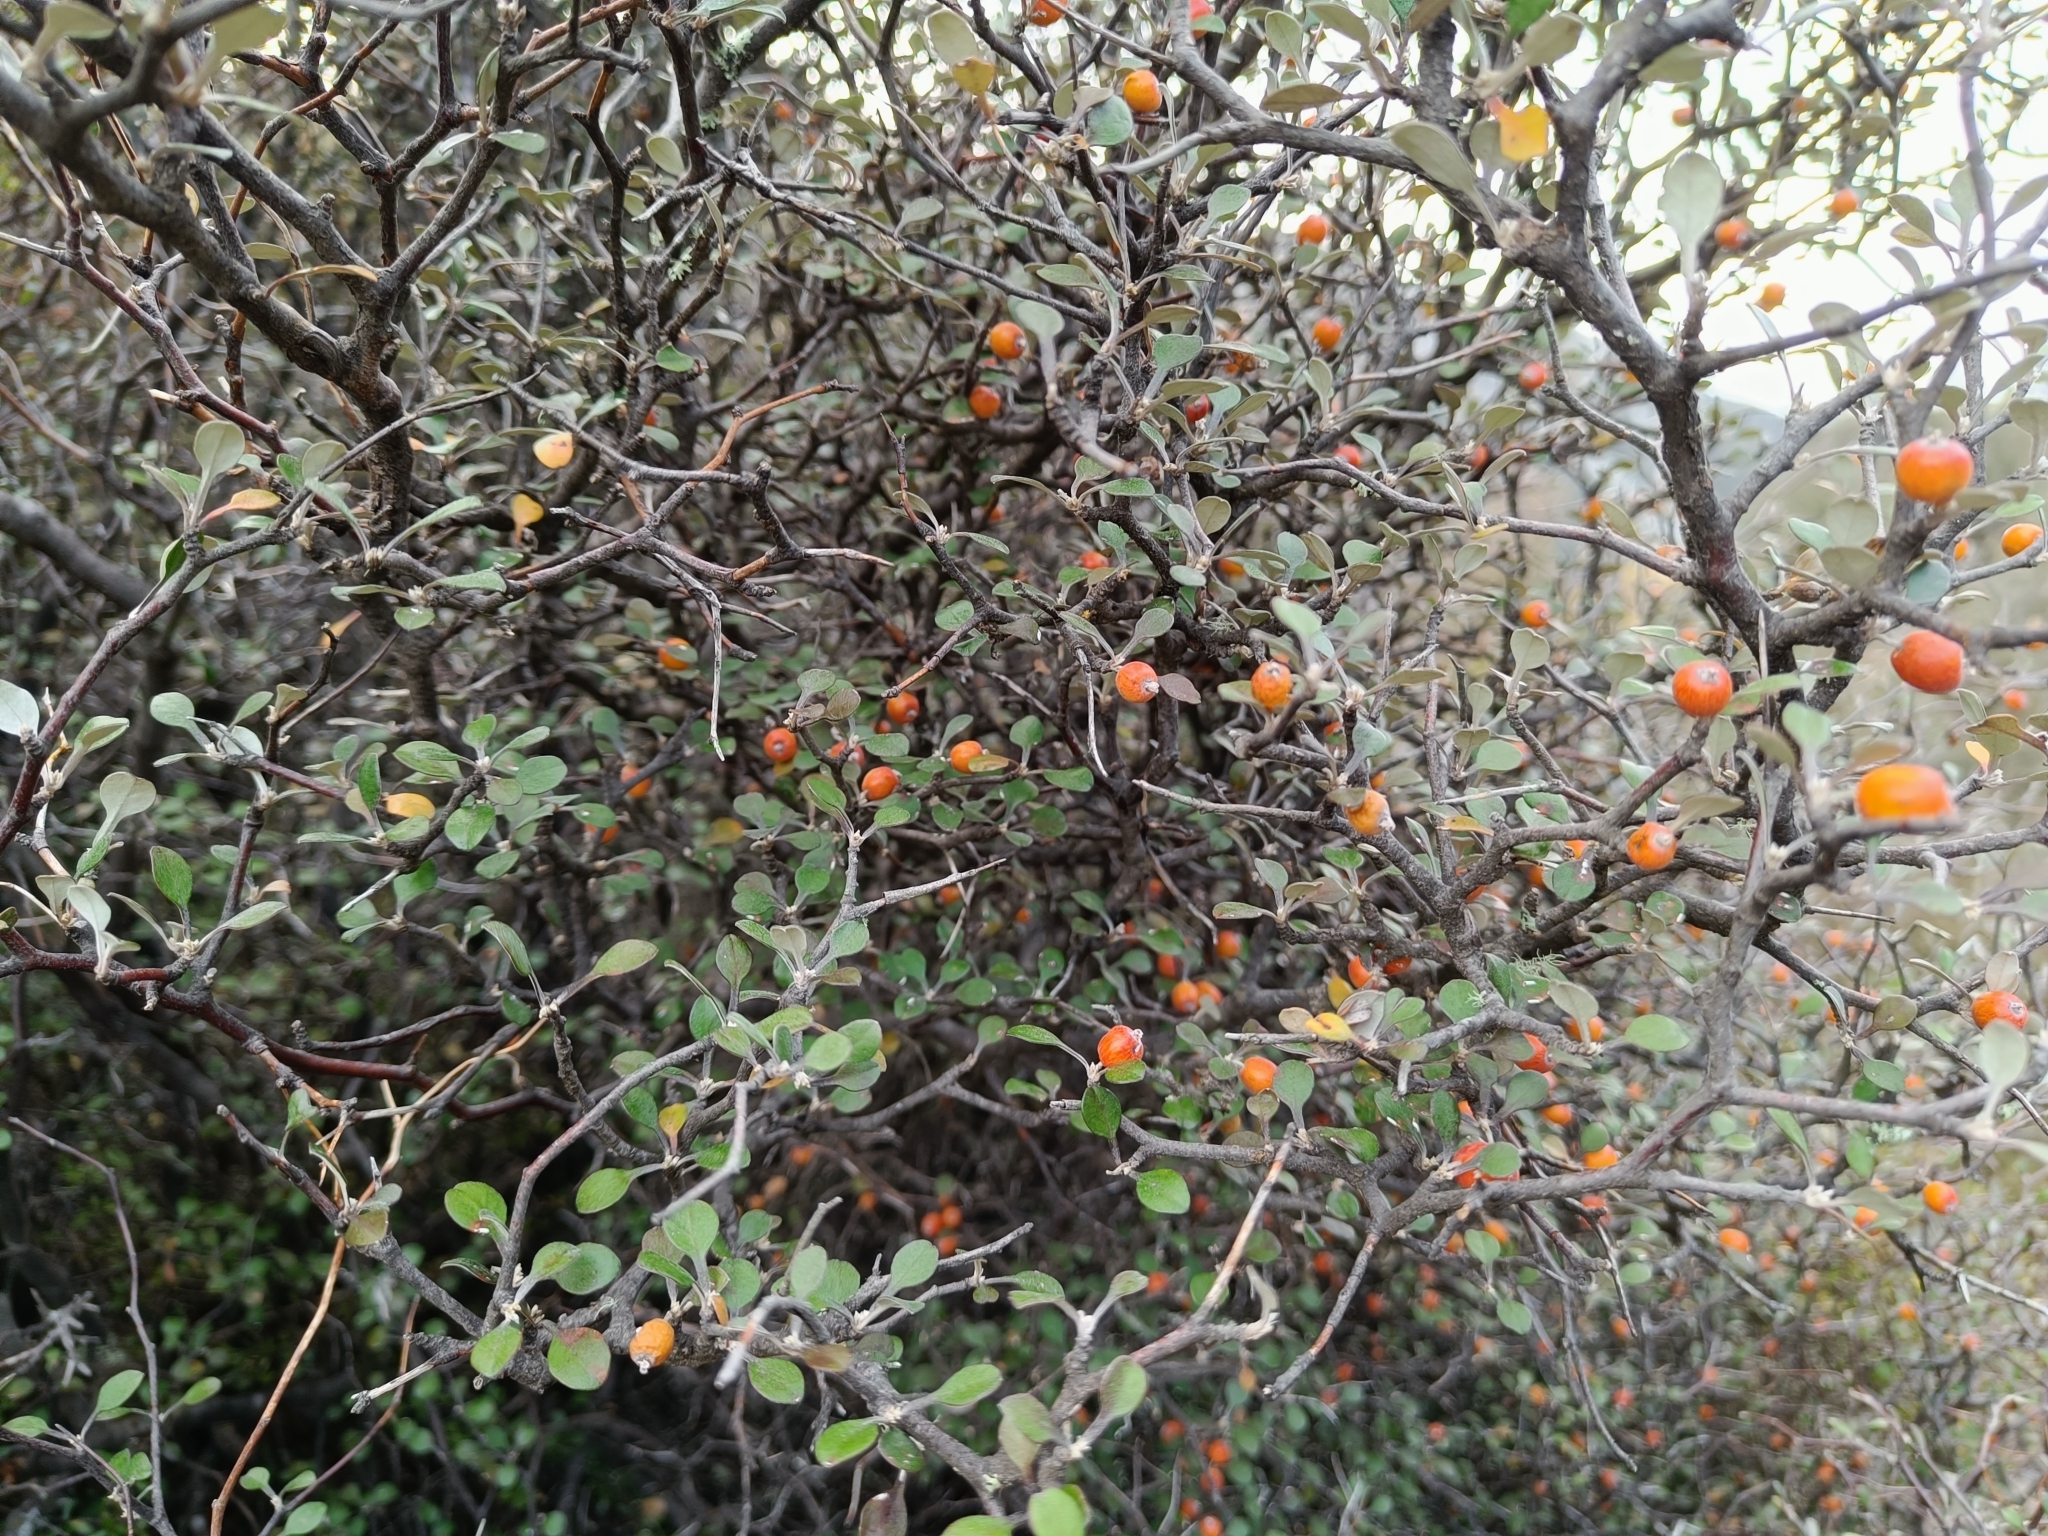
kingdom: Plantae
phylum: Tracheophyta
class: Magnoliopsida
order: Asterales
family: Argophyllaceae
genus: Corokia
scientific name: Corokia cotoneaster
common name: Wire nettingbush
